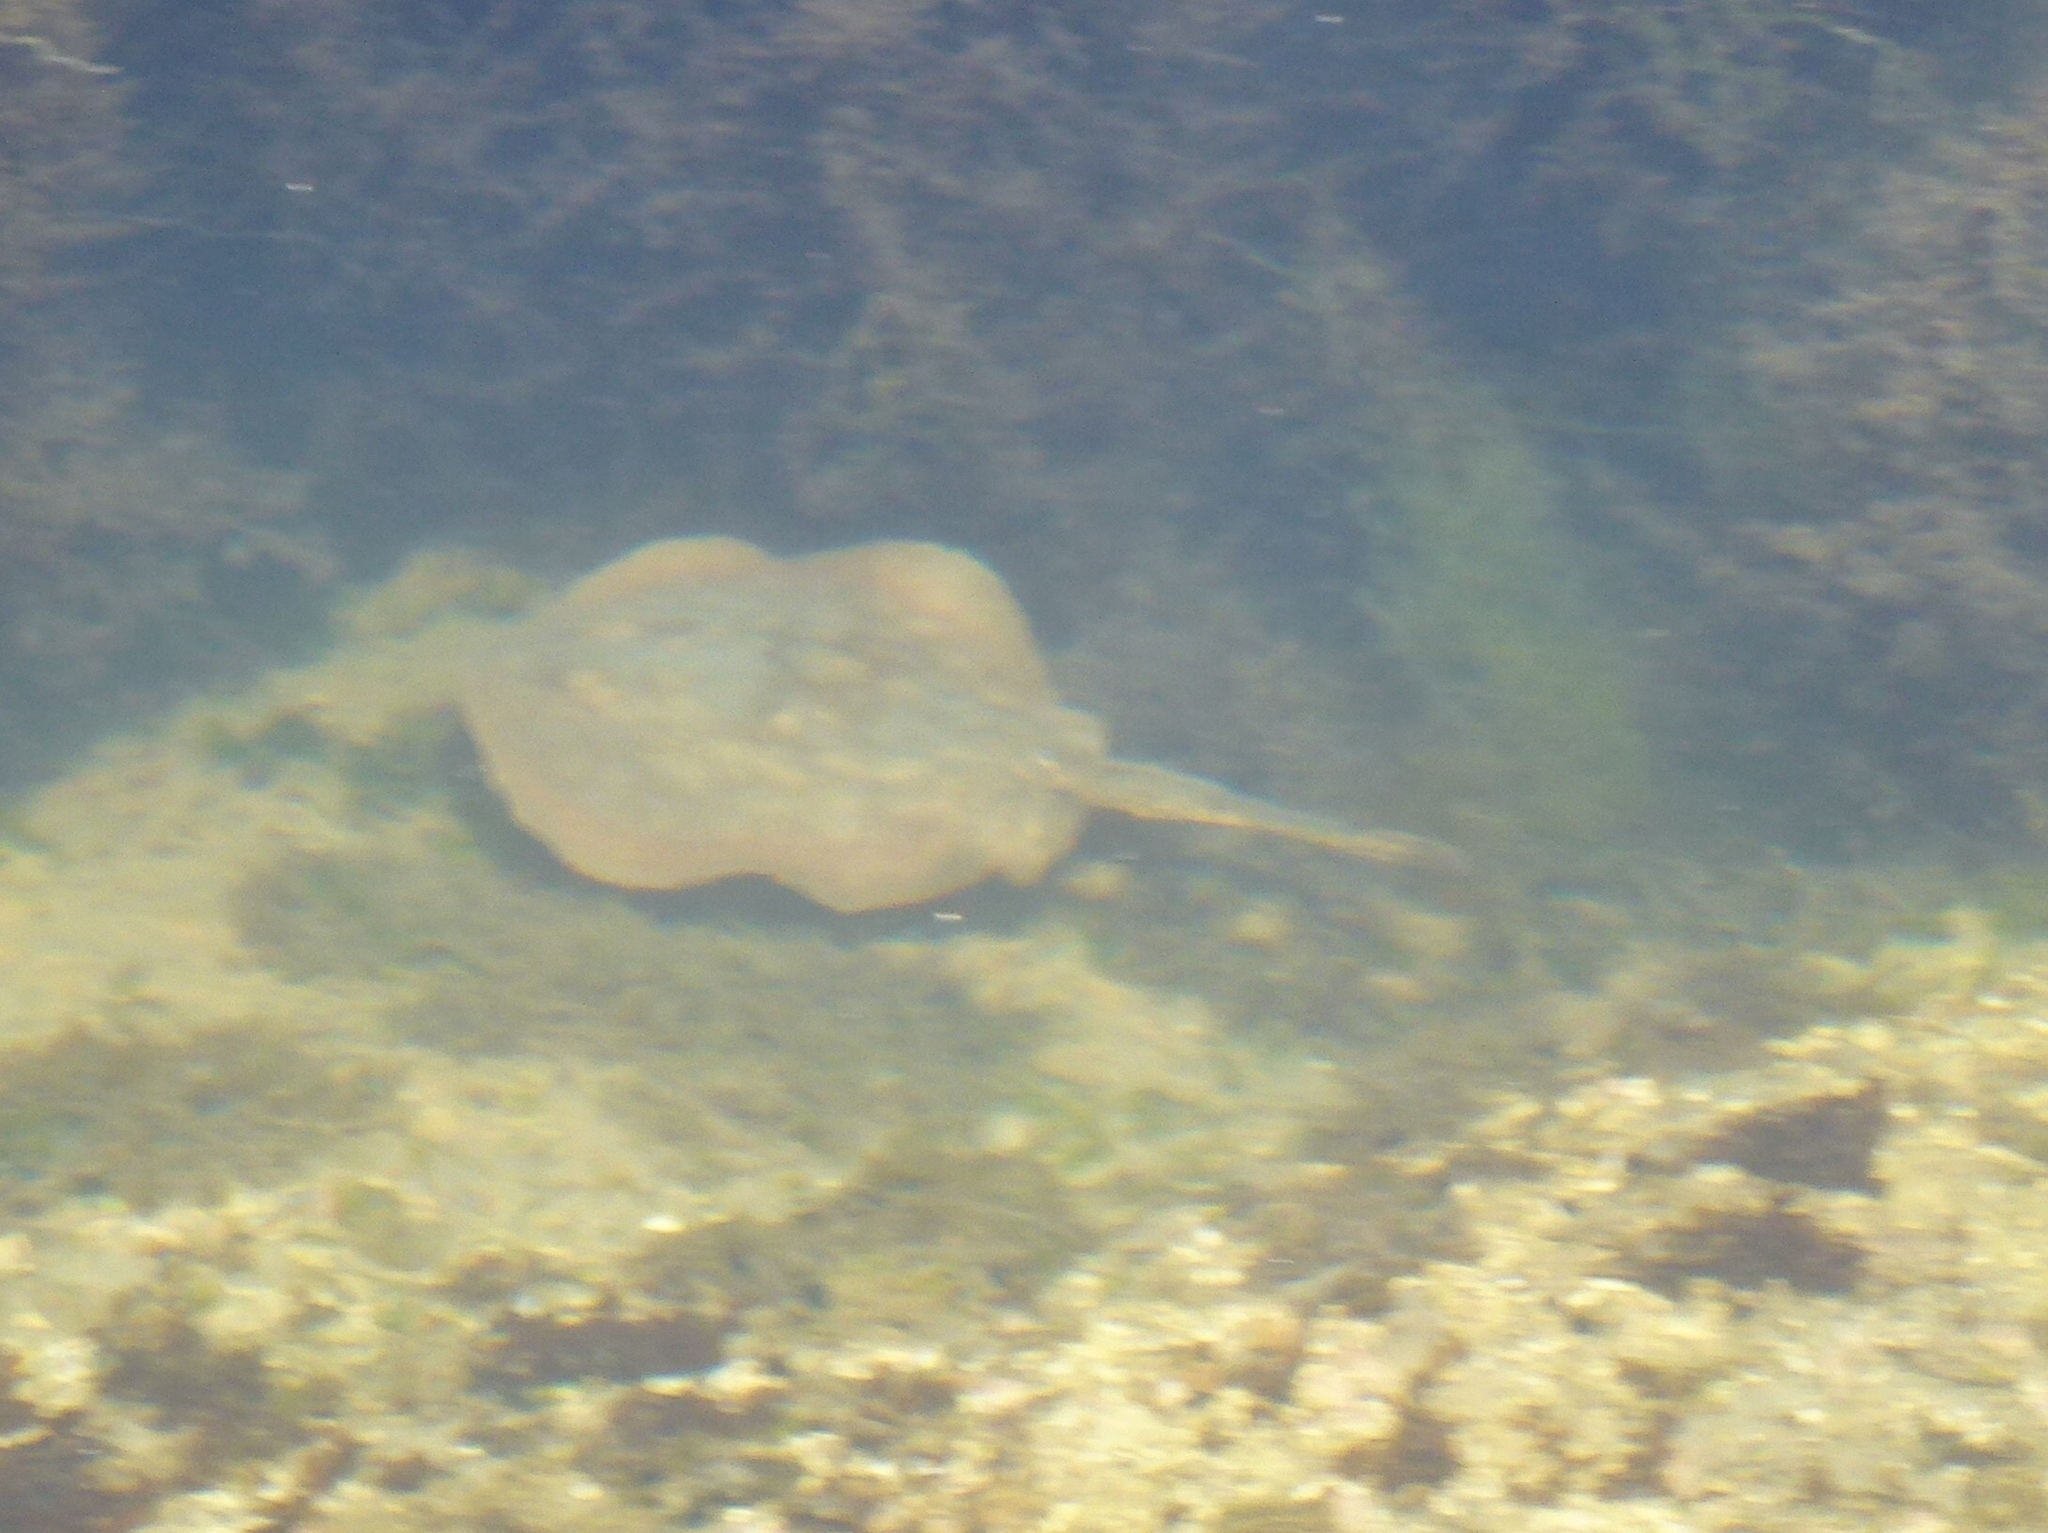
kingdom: Animalia
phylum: Chordata
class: Elasmobranchii
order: Myliobatiformes
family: Urolophidae
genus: Urolophus
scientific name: Urolophus halleri
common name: Round stingray
